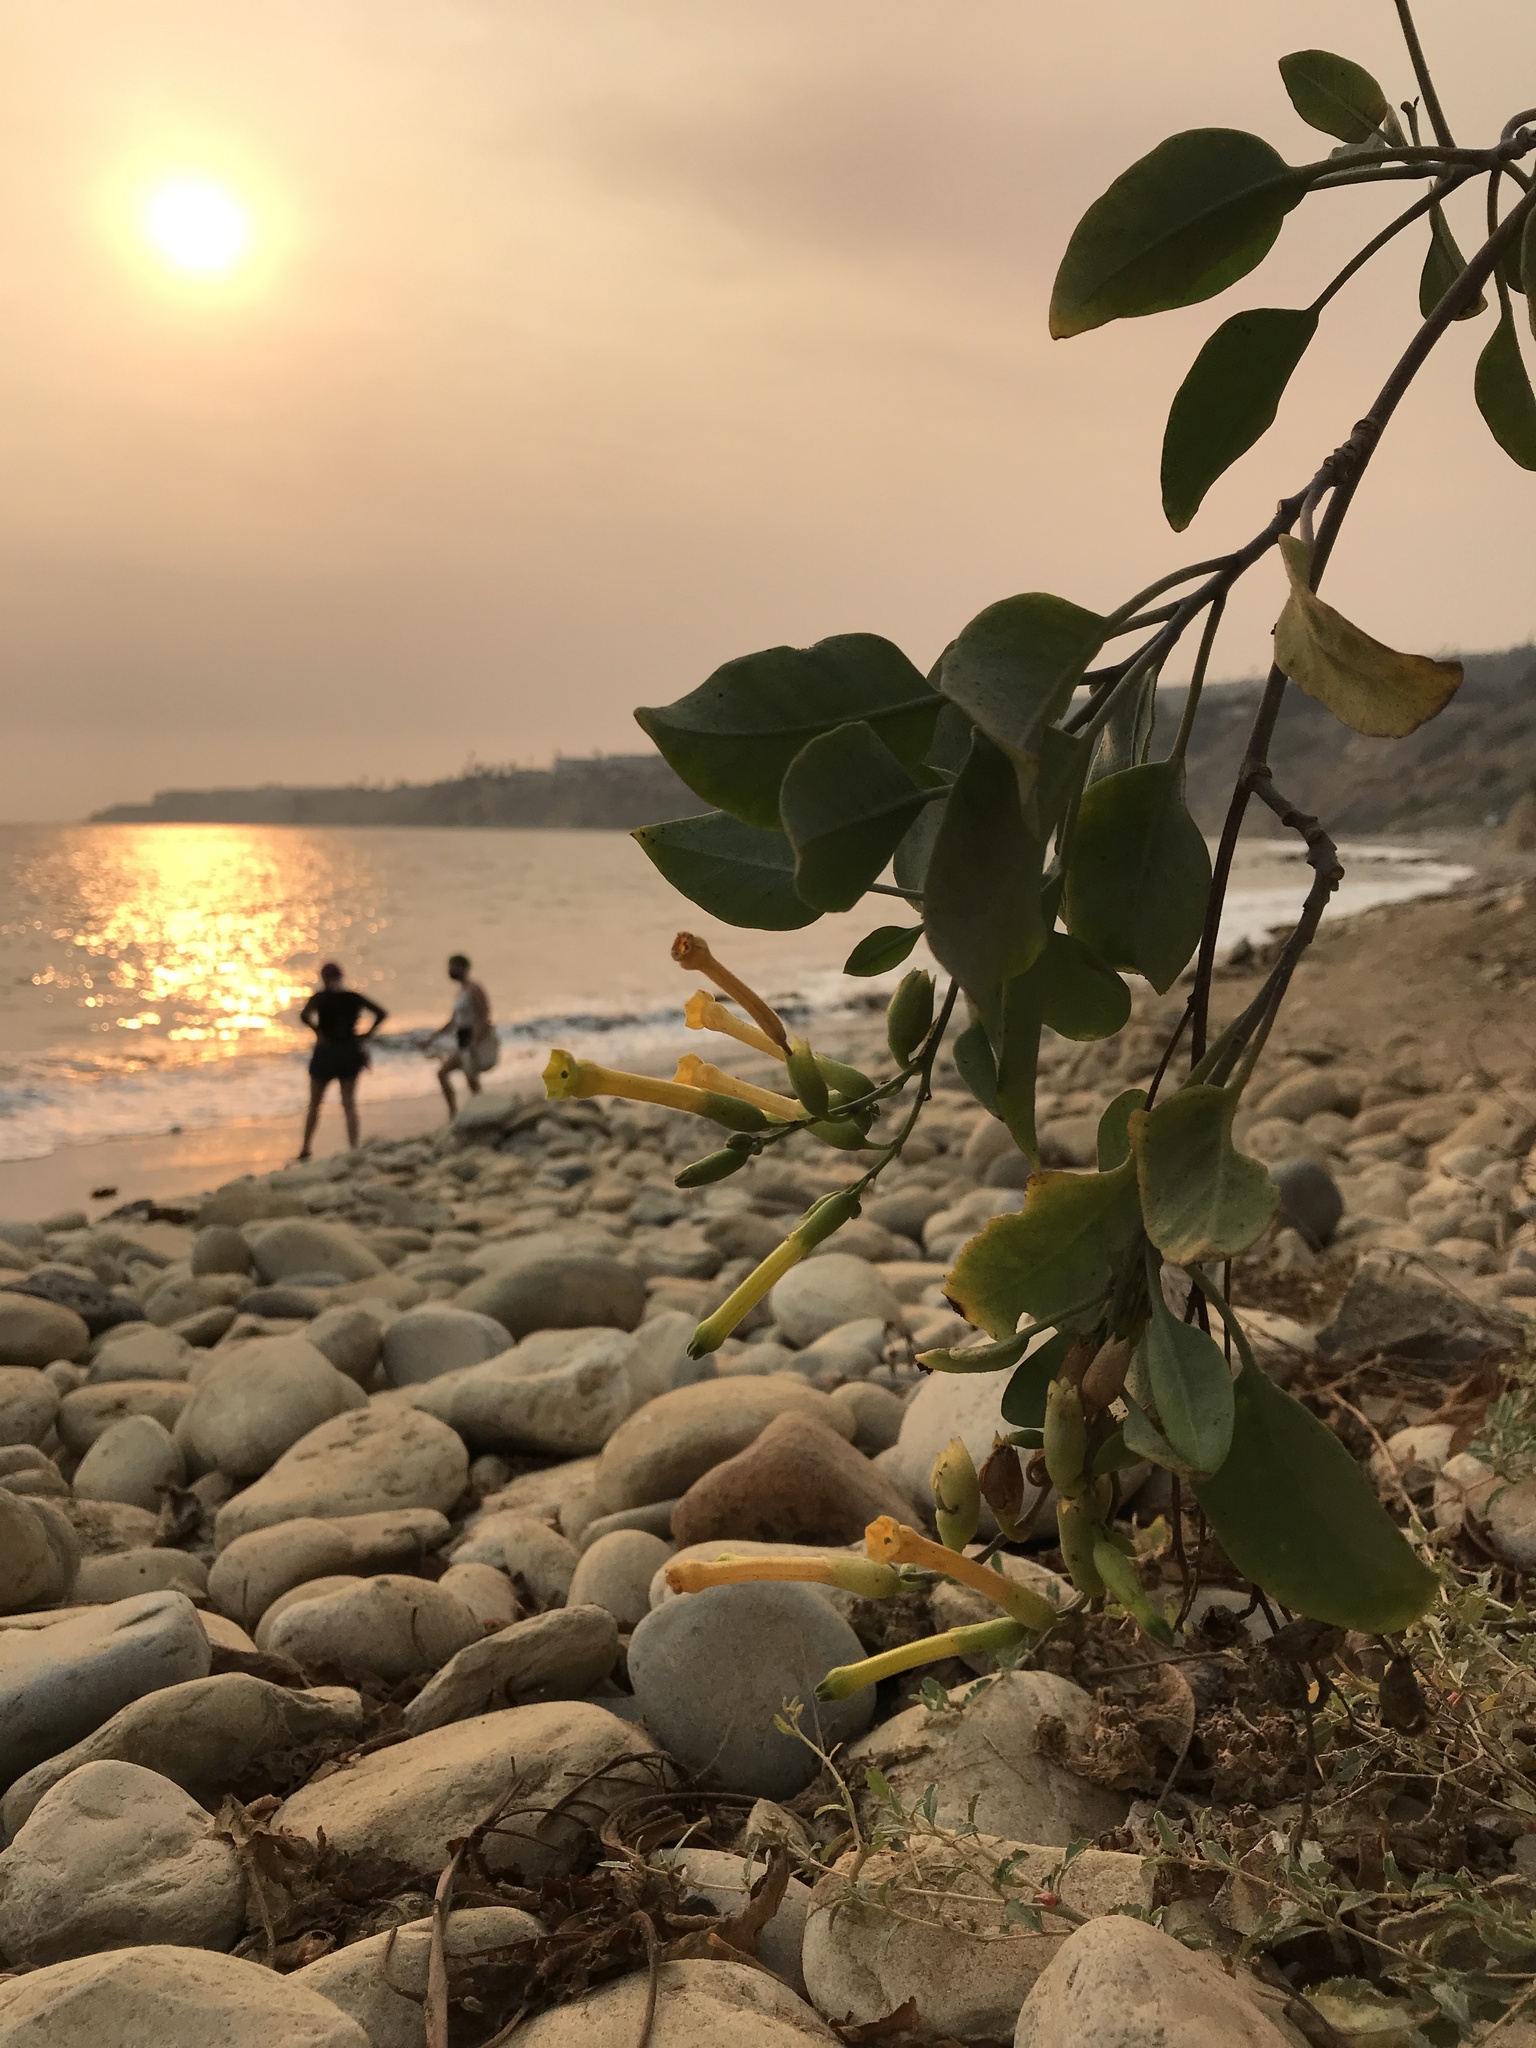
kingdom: Plantae
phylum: Tracheophyta
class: Magnoliopsida
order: Solanales
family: Solanaceae
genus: Nicotiana
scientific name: Nicotiana glauca
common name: Tree tobacco
